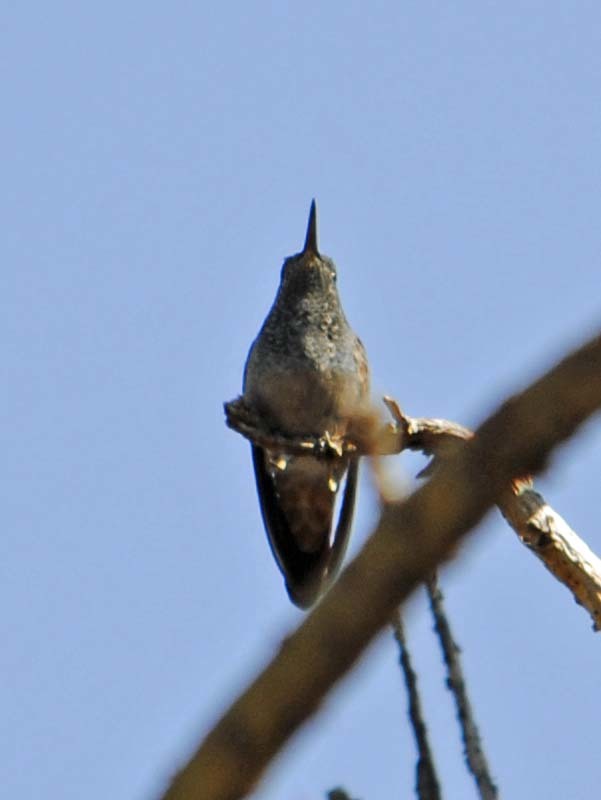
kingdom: Animalia
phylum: Chordata
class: Aves
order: Apodiformes
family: Trochilidae
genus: Saucerottia
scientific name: Saucerottia beryllina
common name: Berylline hummingbird
